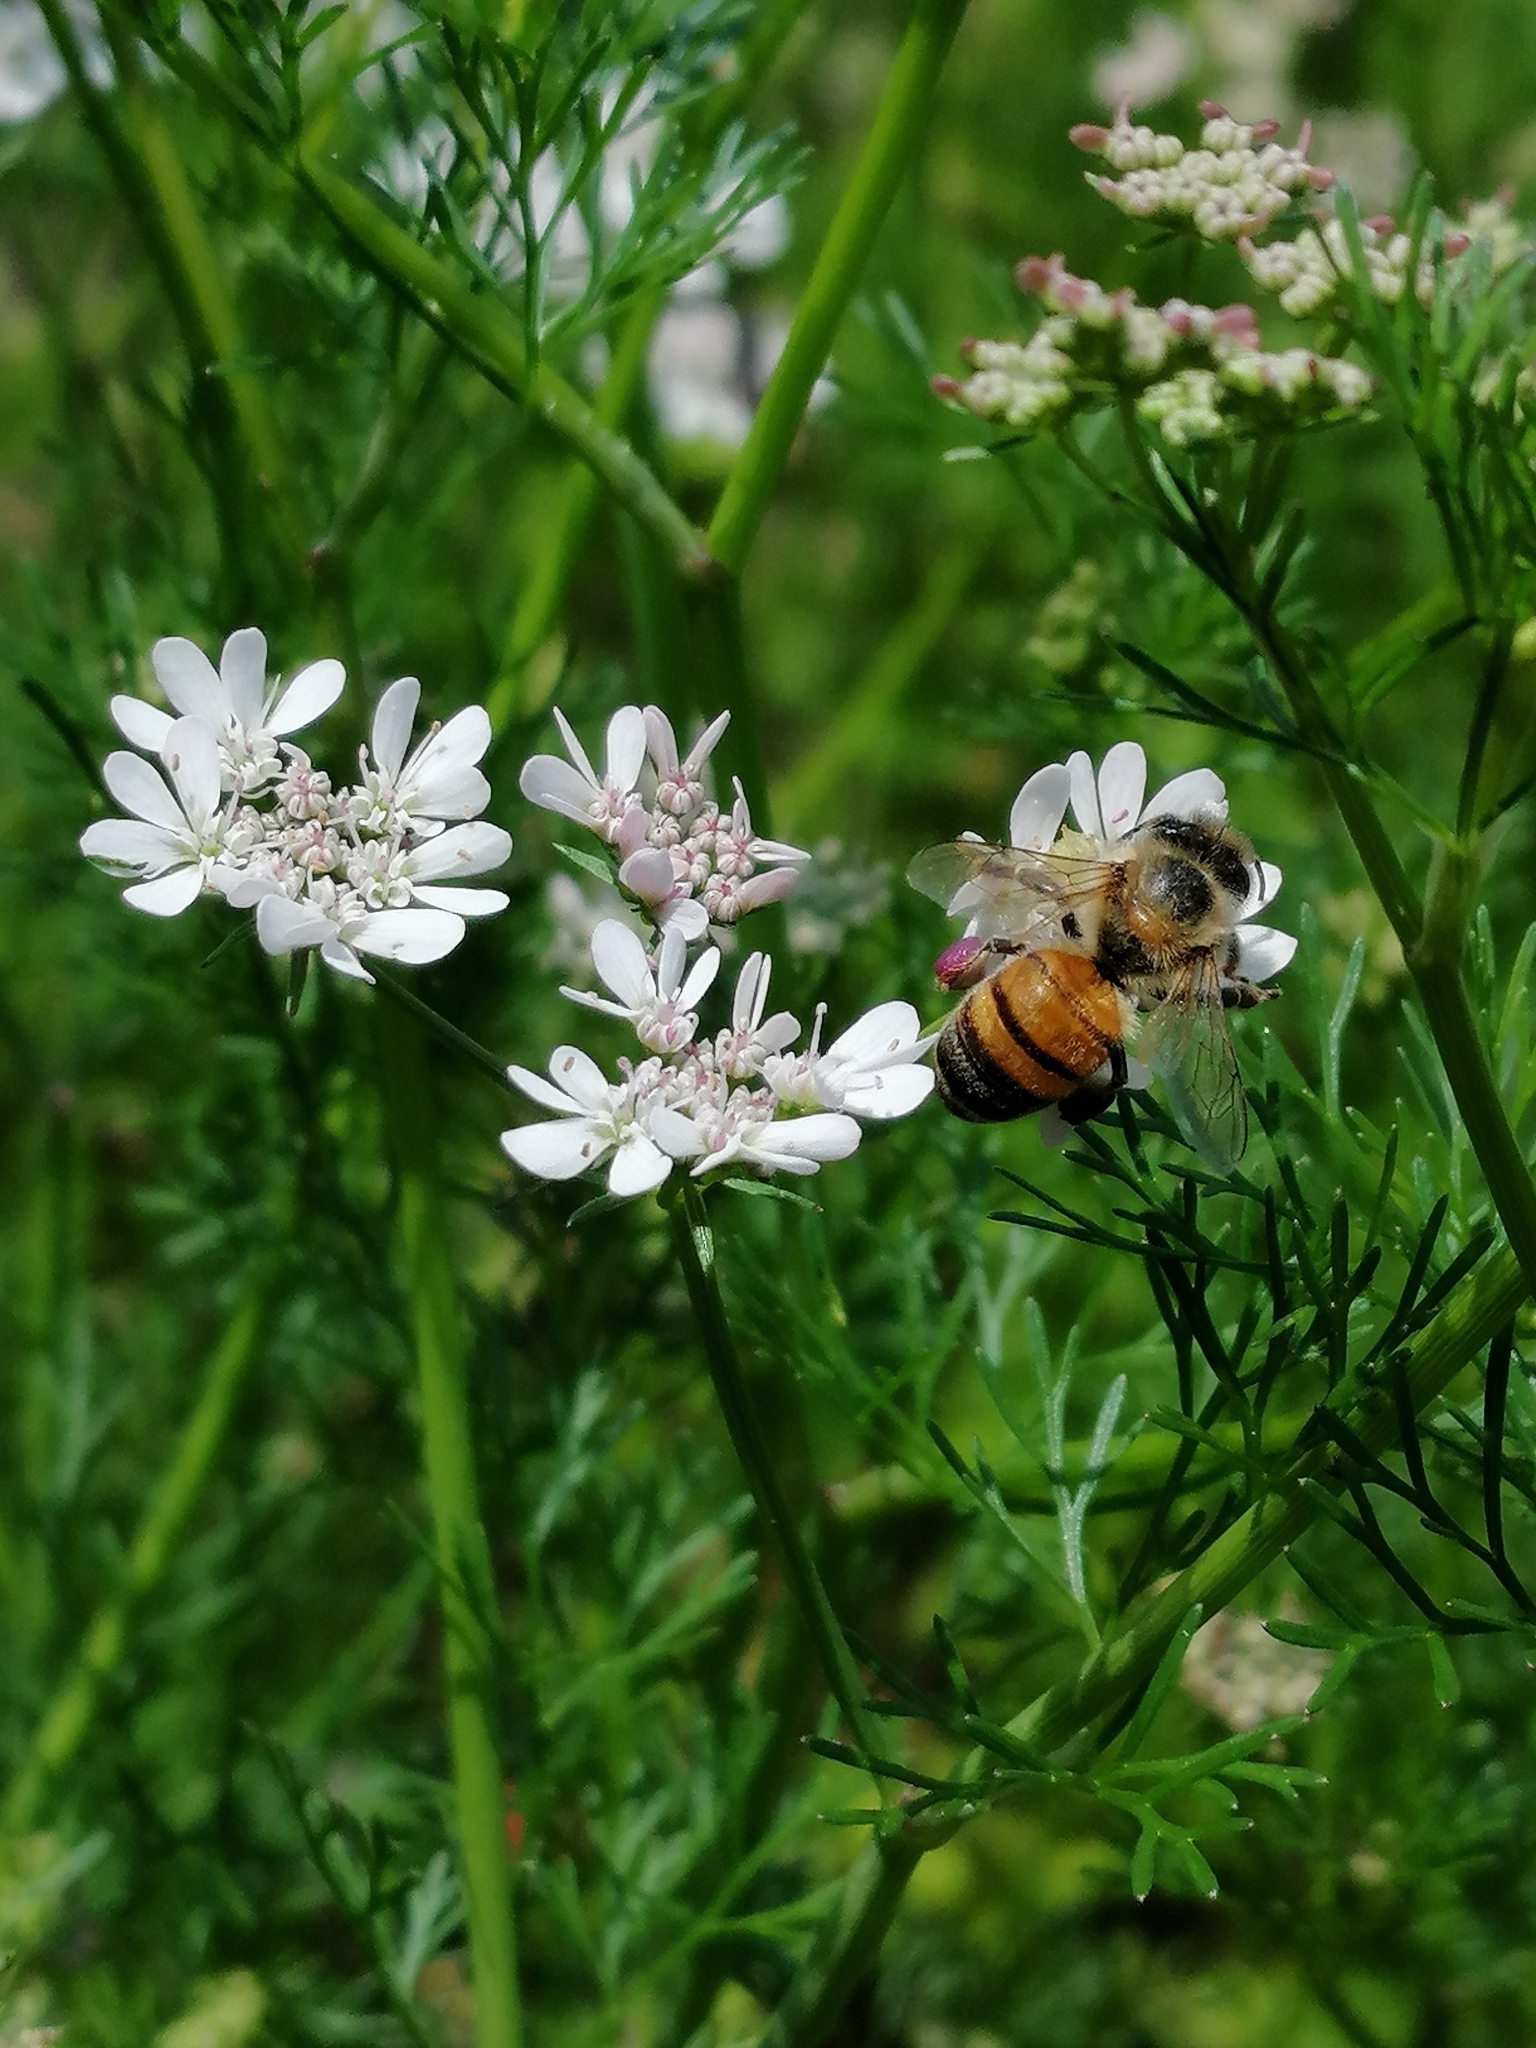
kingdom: Animalia
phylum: Arthropoda
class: Insecta
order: Hymenoptera
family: Apidae
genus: Apis
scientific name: Apis mellifera
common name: Honey bee
